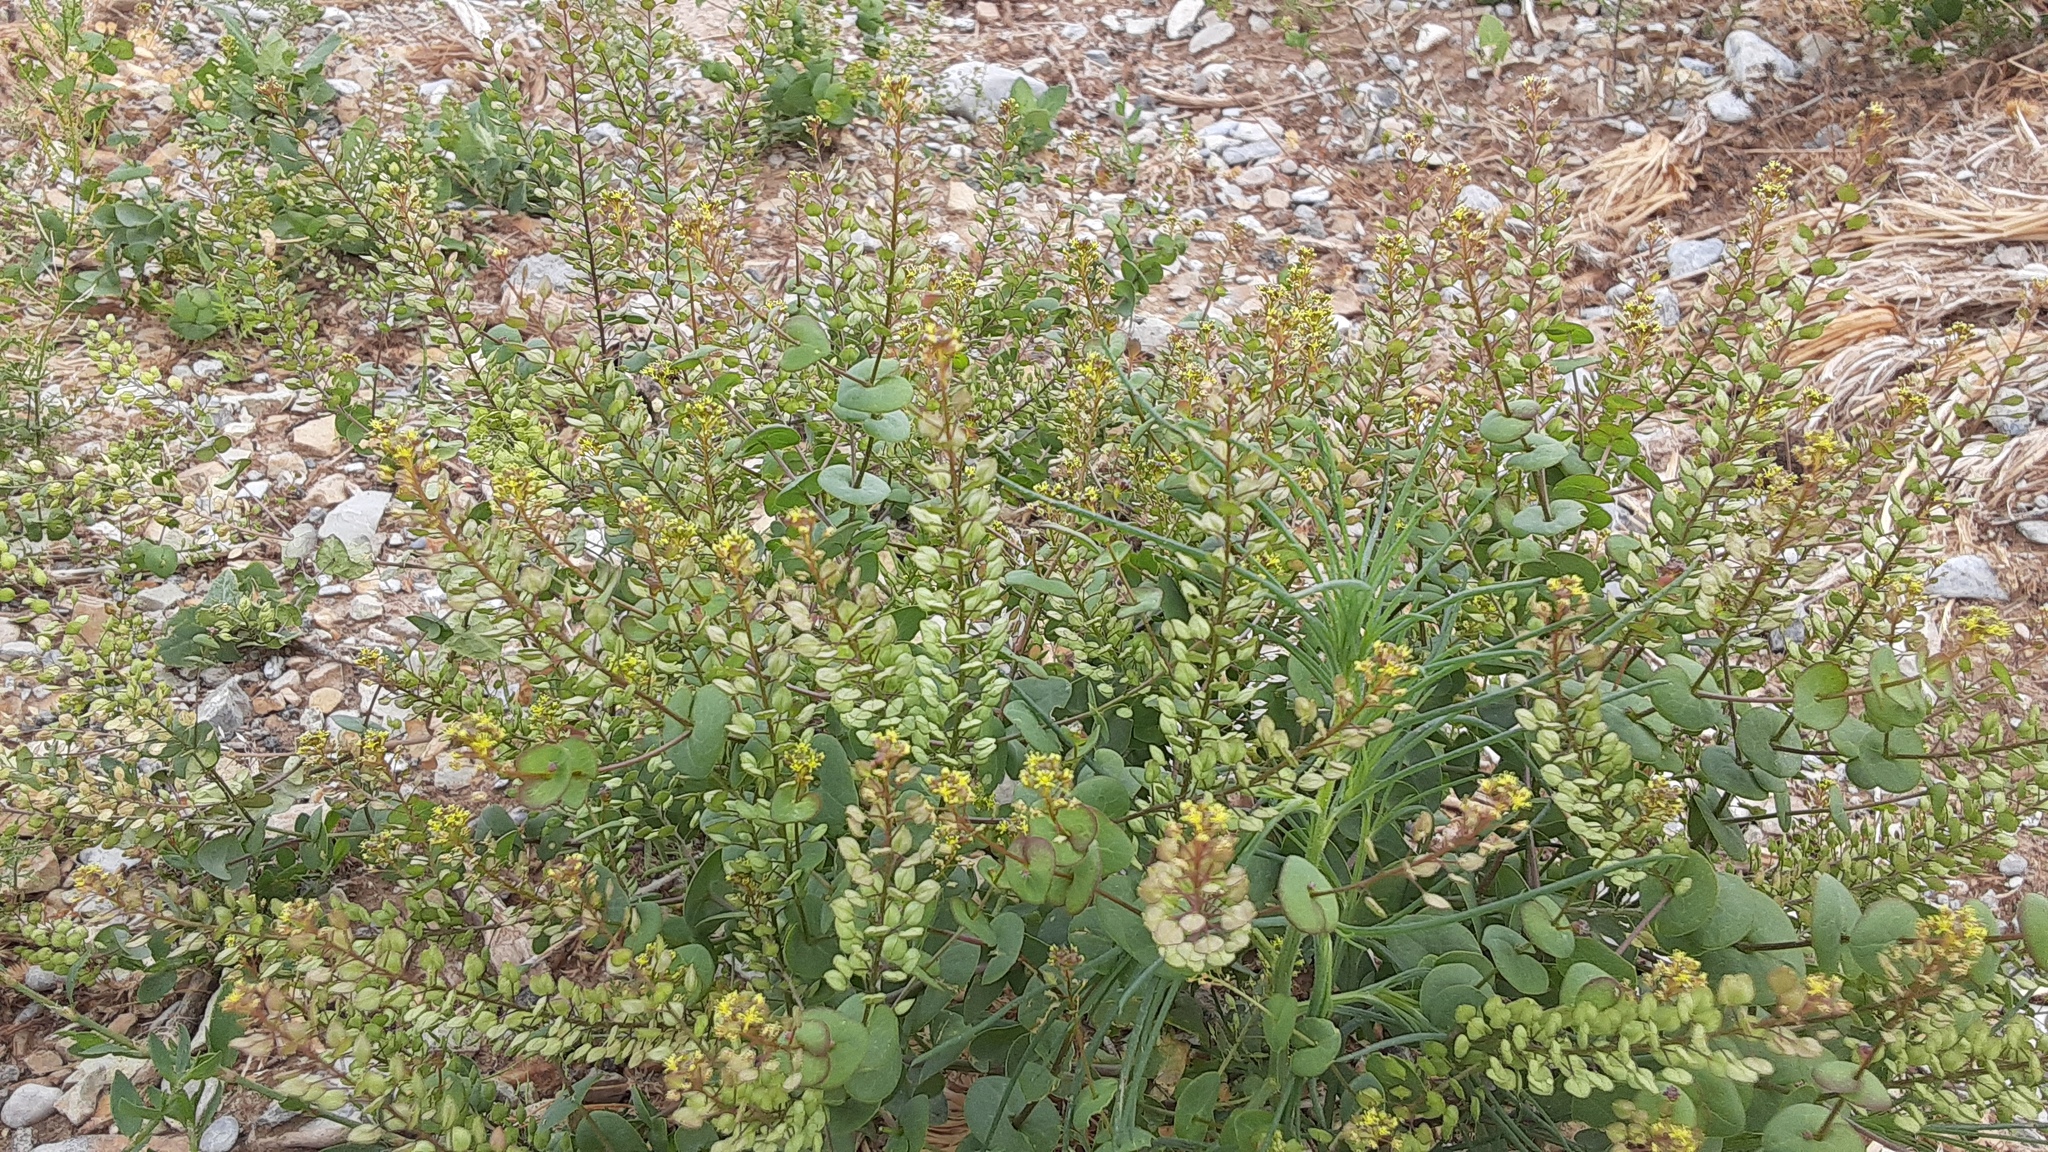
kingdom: Plantae
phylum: Tracheophyta
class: Magnoliopsida
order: Brassicales
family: Brassicaceae
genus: Lepidium
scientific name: Lepidium perfoliatum
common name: Perfoliate pepperwort
